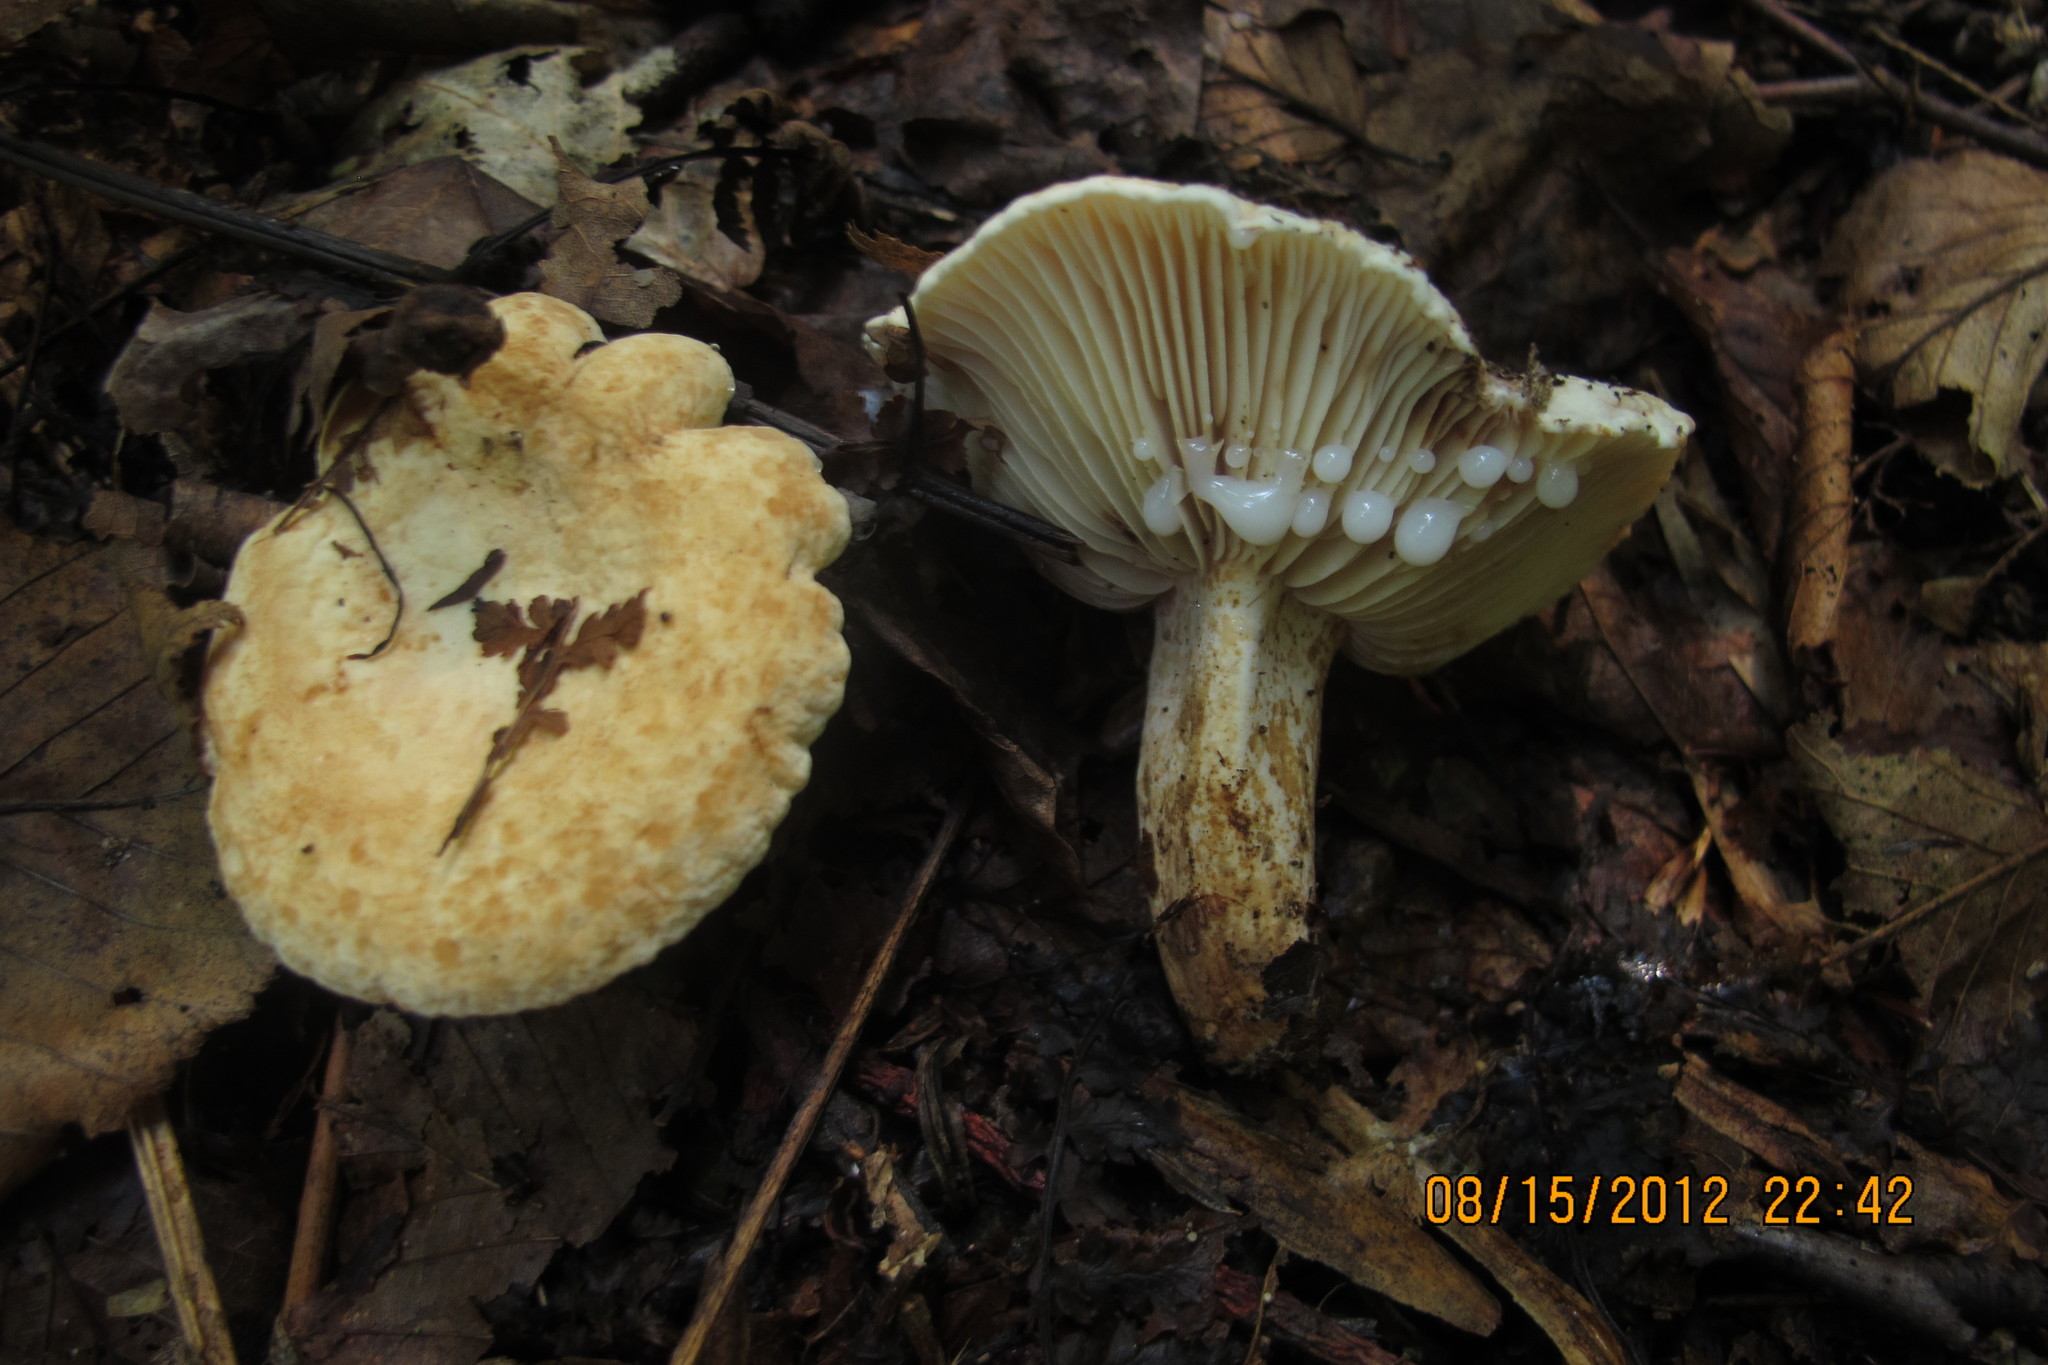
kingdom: Fungi
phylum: Basidiomycota
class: Agaricomycetes
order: Russulales
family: Russulaceae
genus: Lactifluus
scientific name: Lactifluus luteolus
